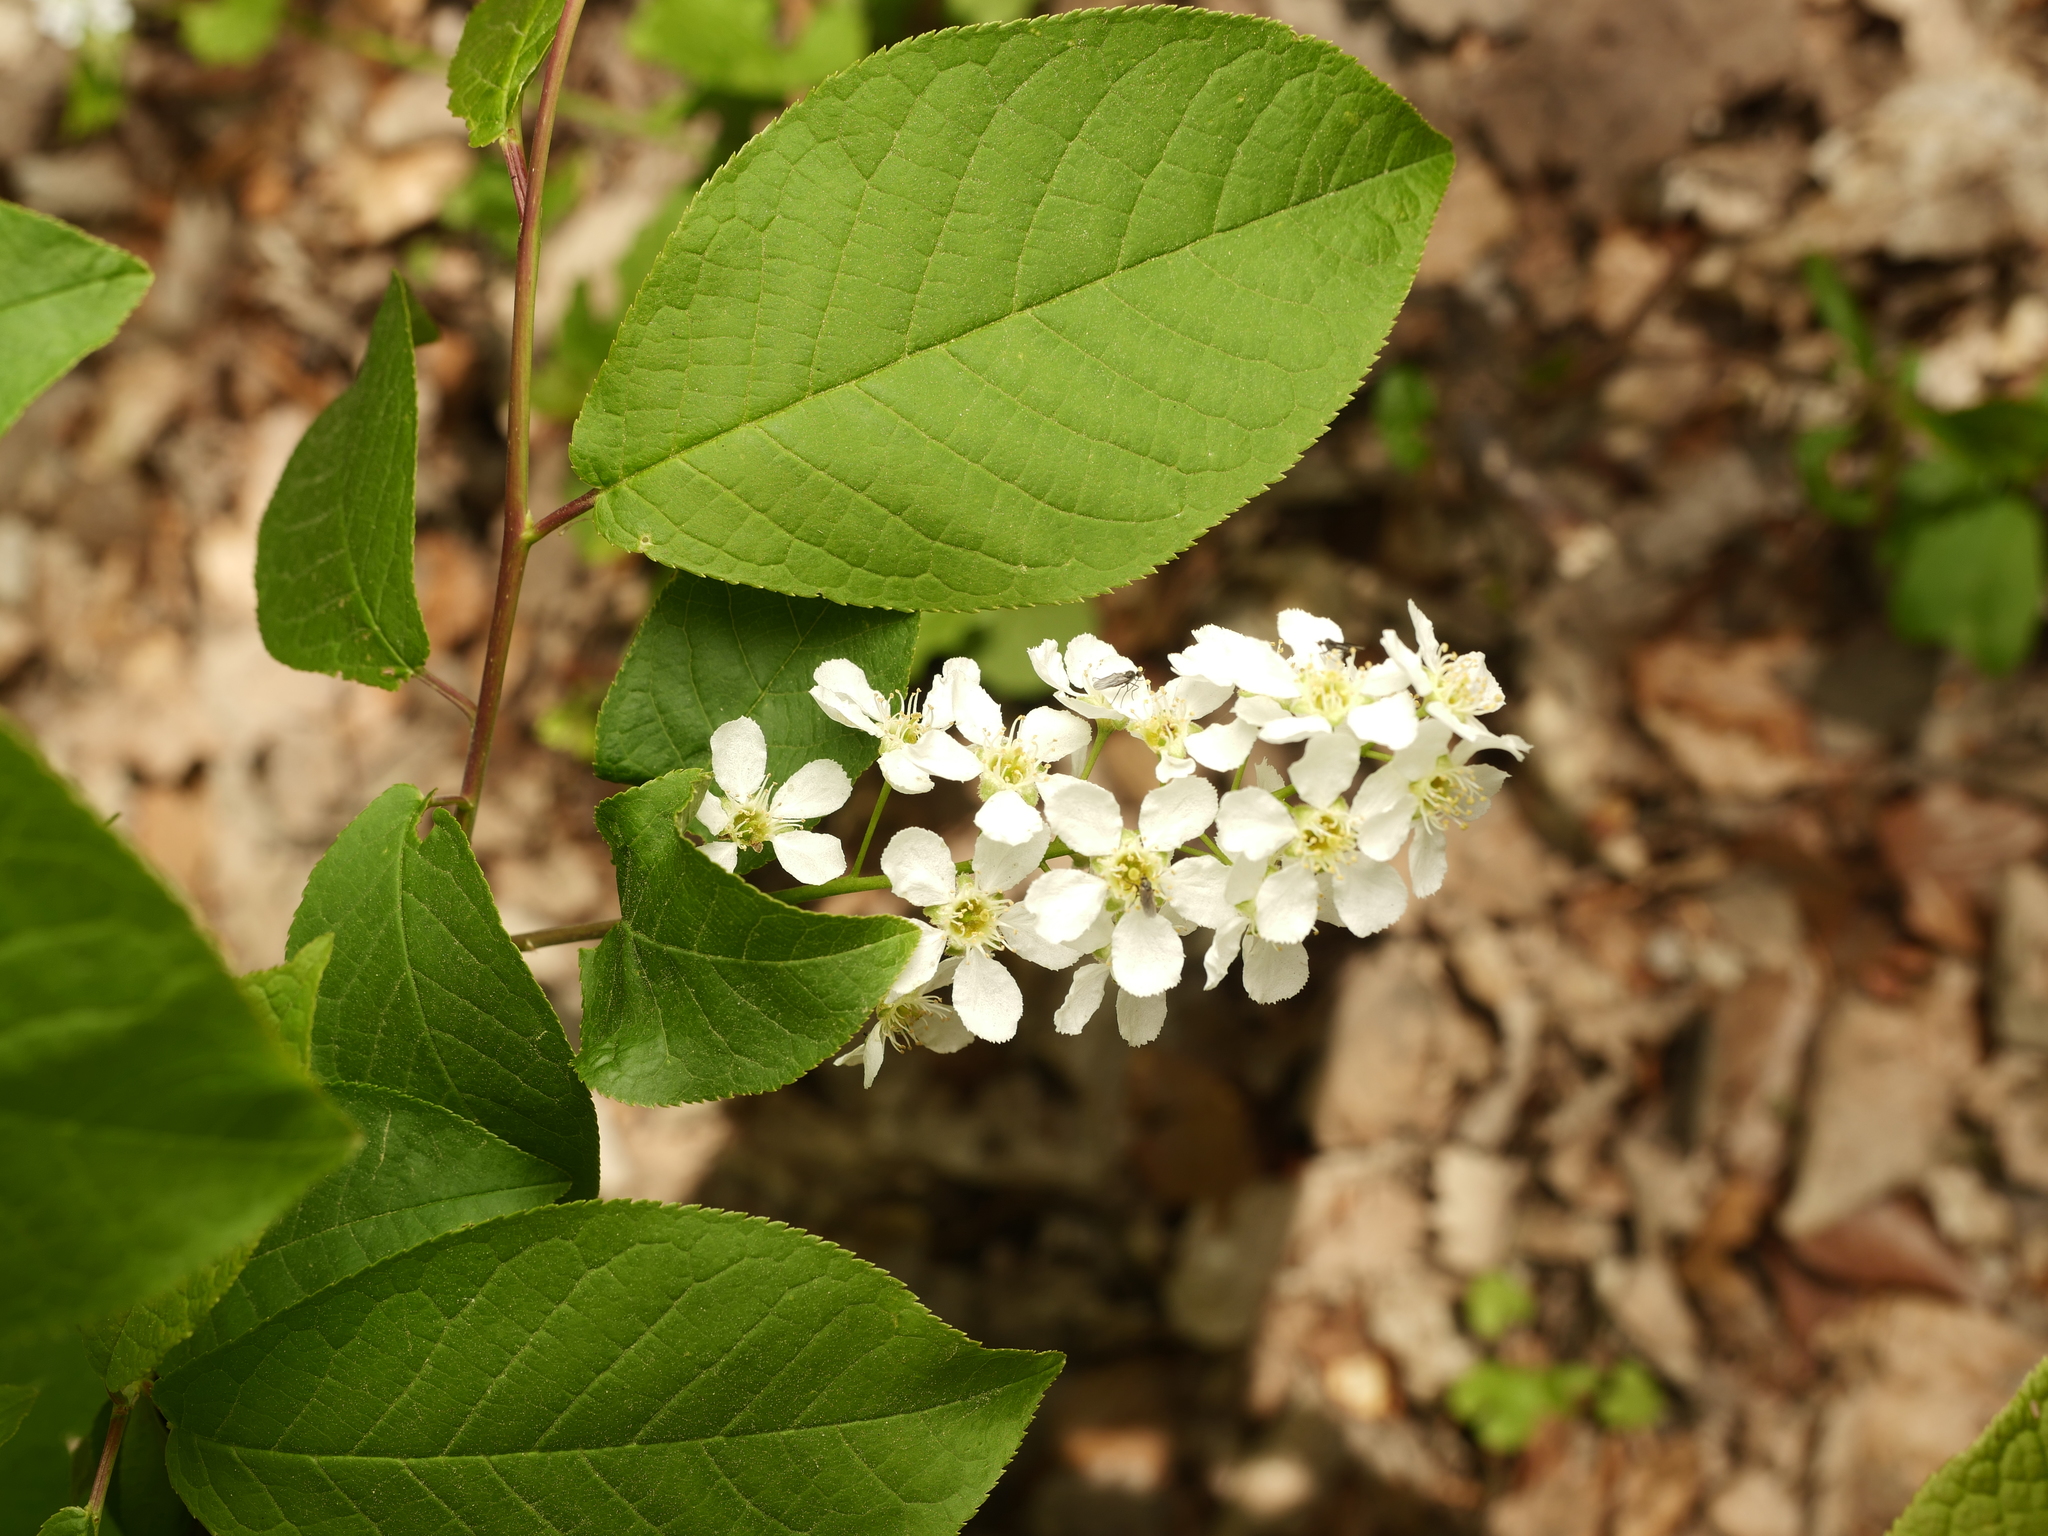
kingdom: Plantae
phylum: Tracheophyta
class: Magnoliopsida
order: Rosales
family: Rosaceae
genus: Prunus
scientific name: Prunus padus
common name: Bird cherry
